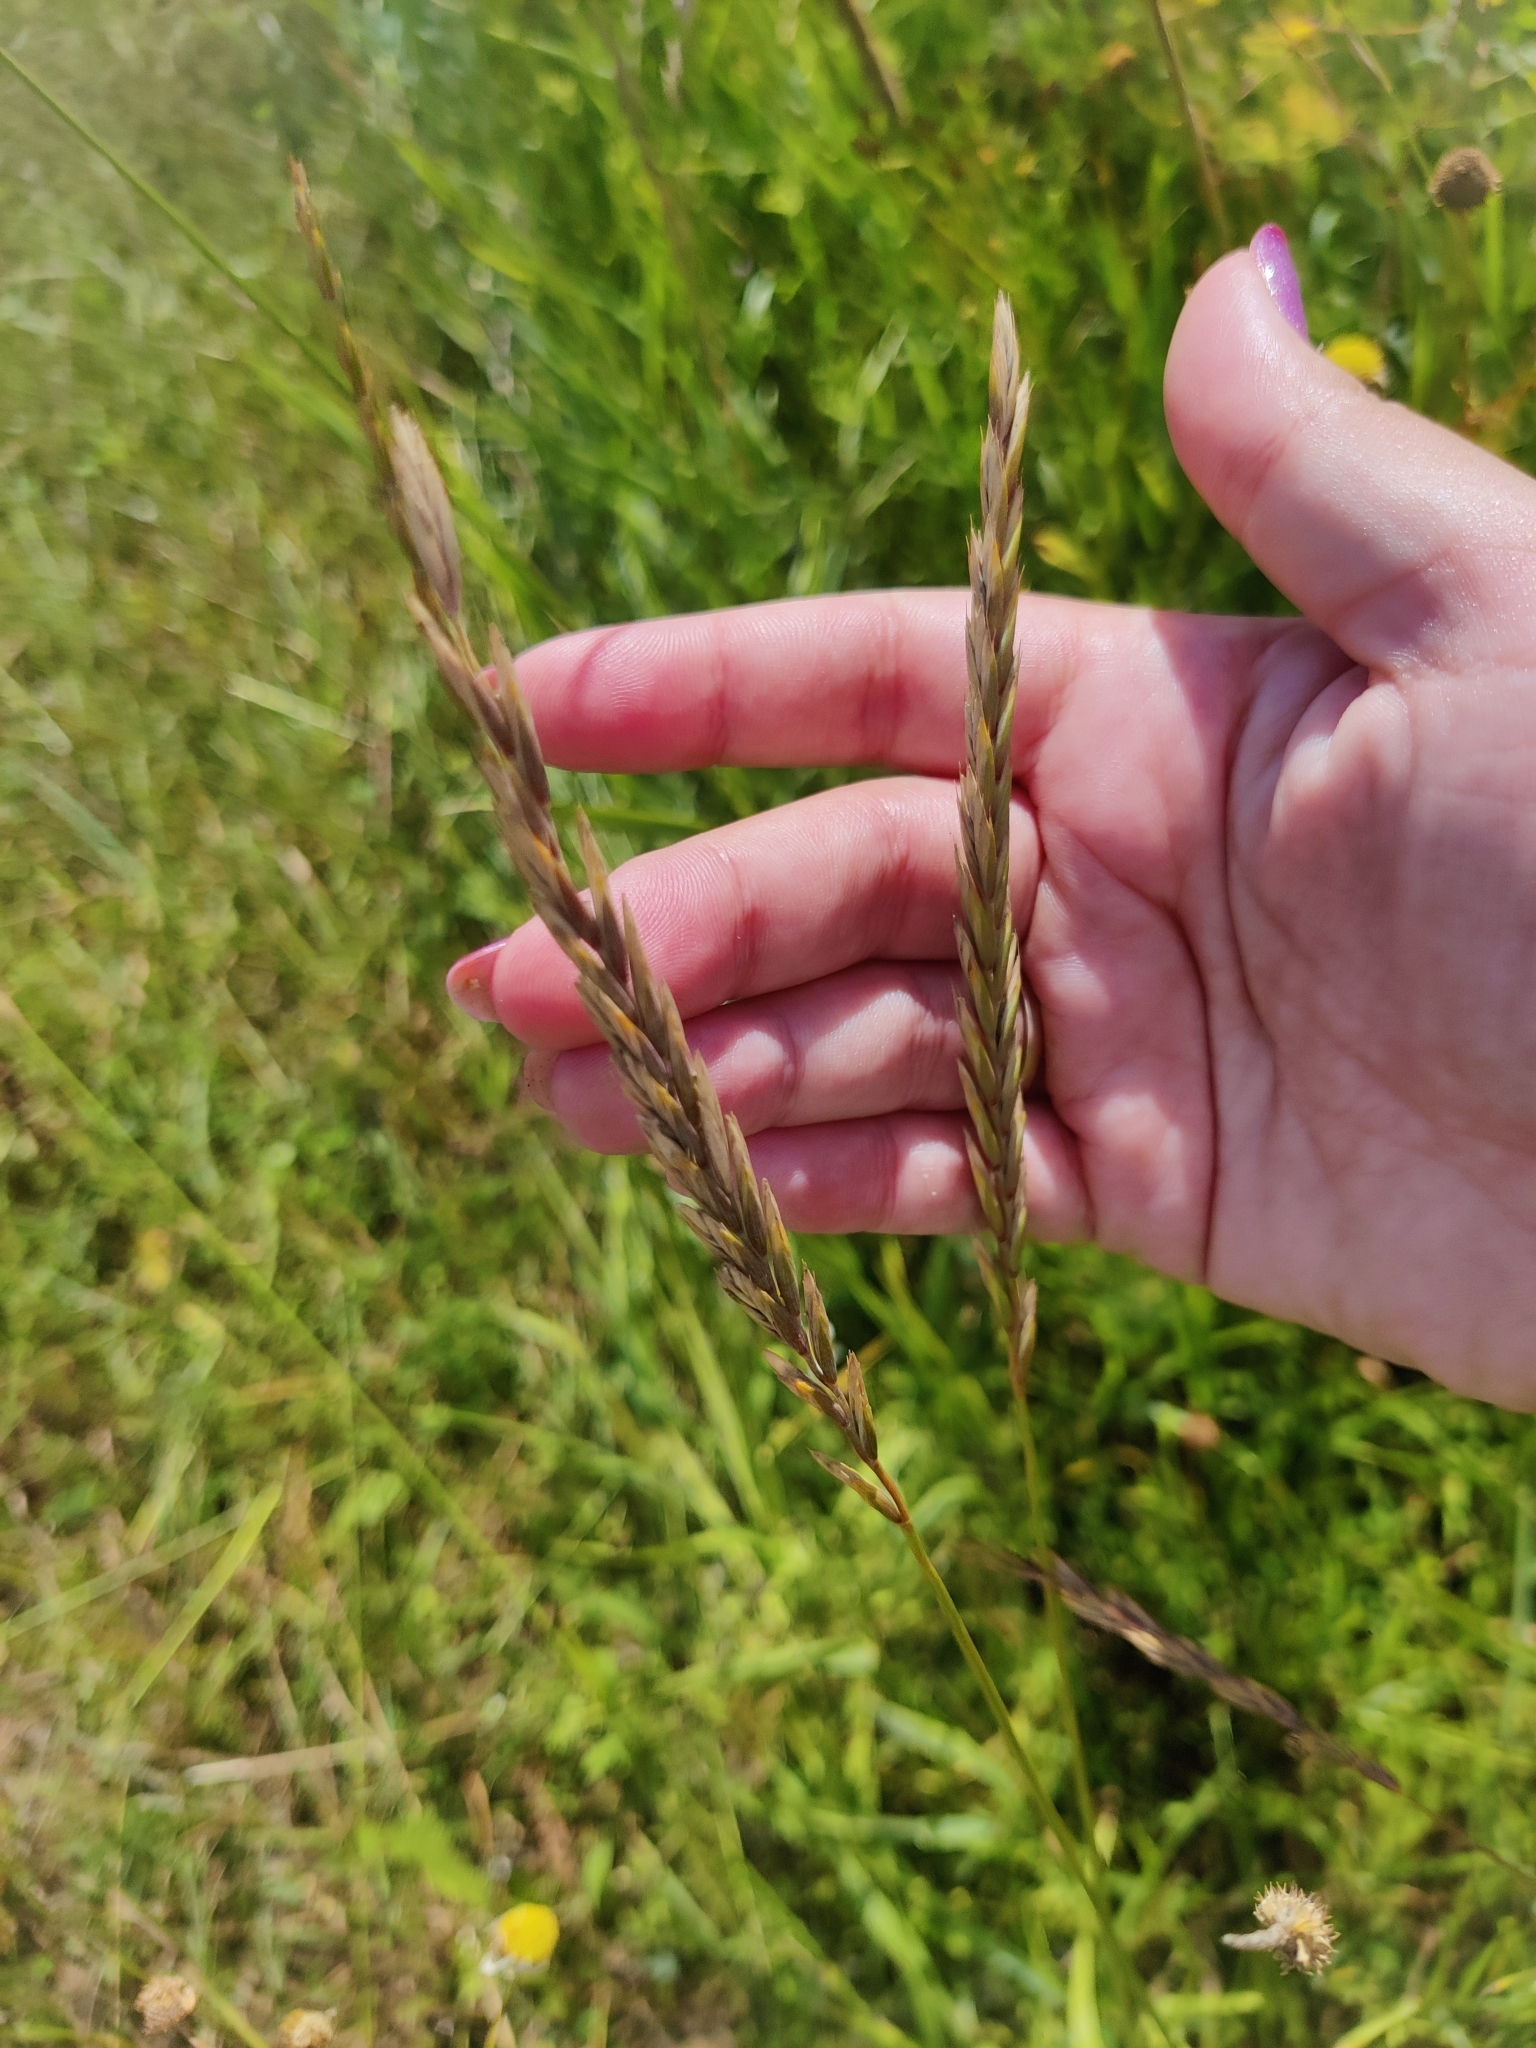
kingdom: Plantae
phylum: Tracheophyta
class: Liliopsida
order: Poales
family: Poaceae
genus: Elymus
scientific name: Elymus repens
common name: Quackgrass
